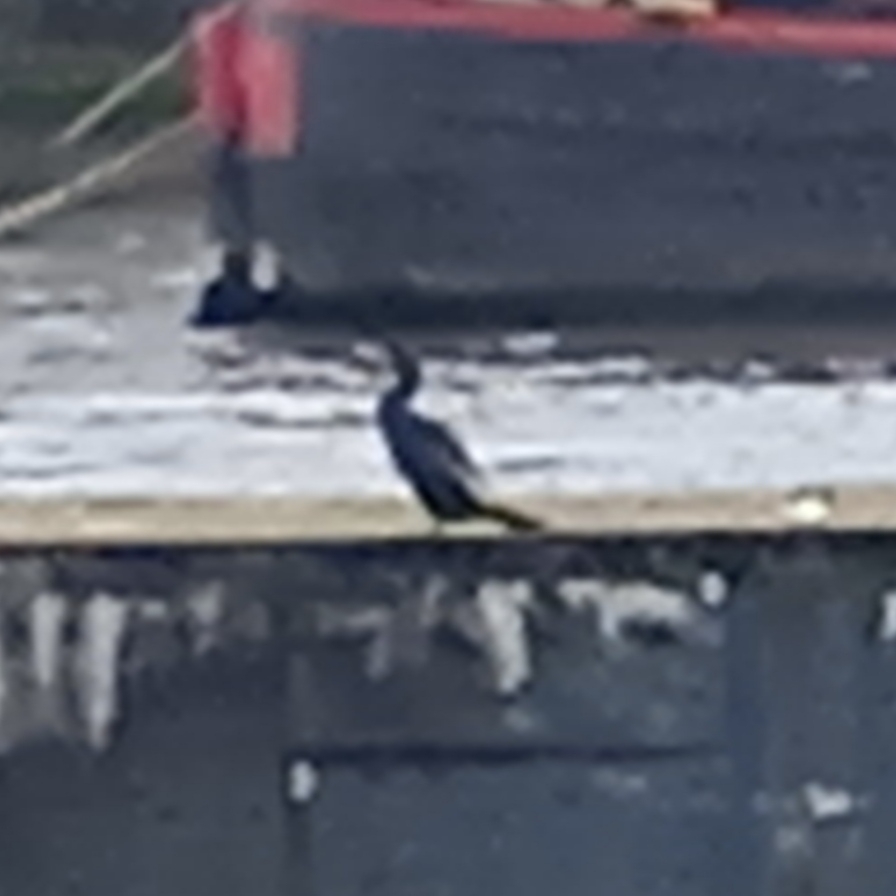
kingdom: Animalia
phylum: Chordata
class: Aves
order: Suliformes
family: Phalacrocoracidae
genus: Phalacrocorax
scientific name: Phalacrocorax carbo
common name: Great cormorant
